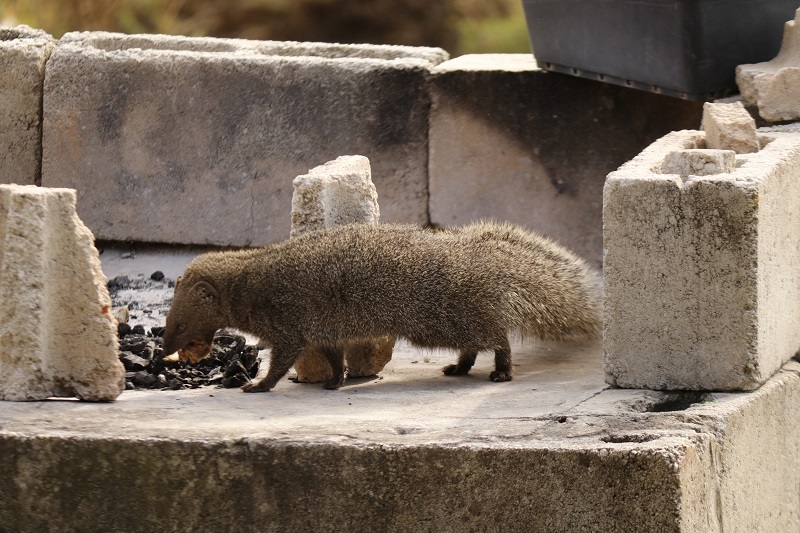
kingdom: Animalia
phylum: Chordata
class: Mammalia
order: Carnivora
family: Herpestidae
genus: Galerella
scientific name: Galerella pulverulenta
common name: Cape gray mongoose
